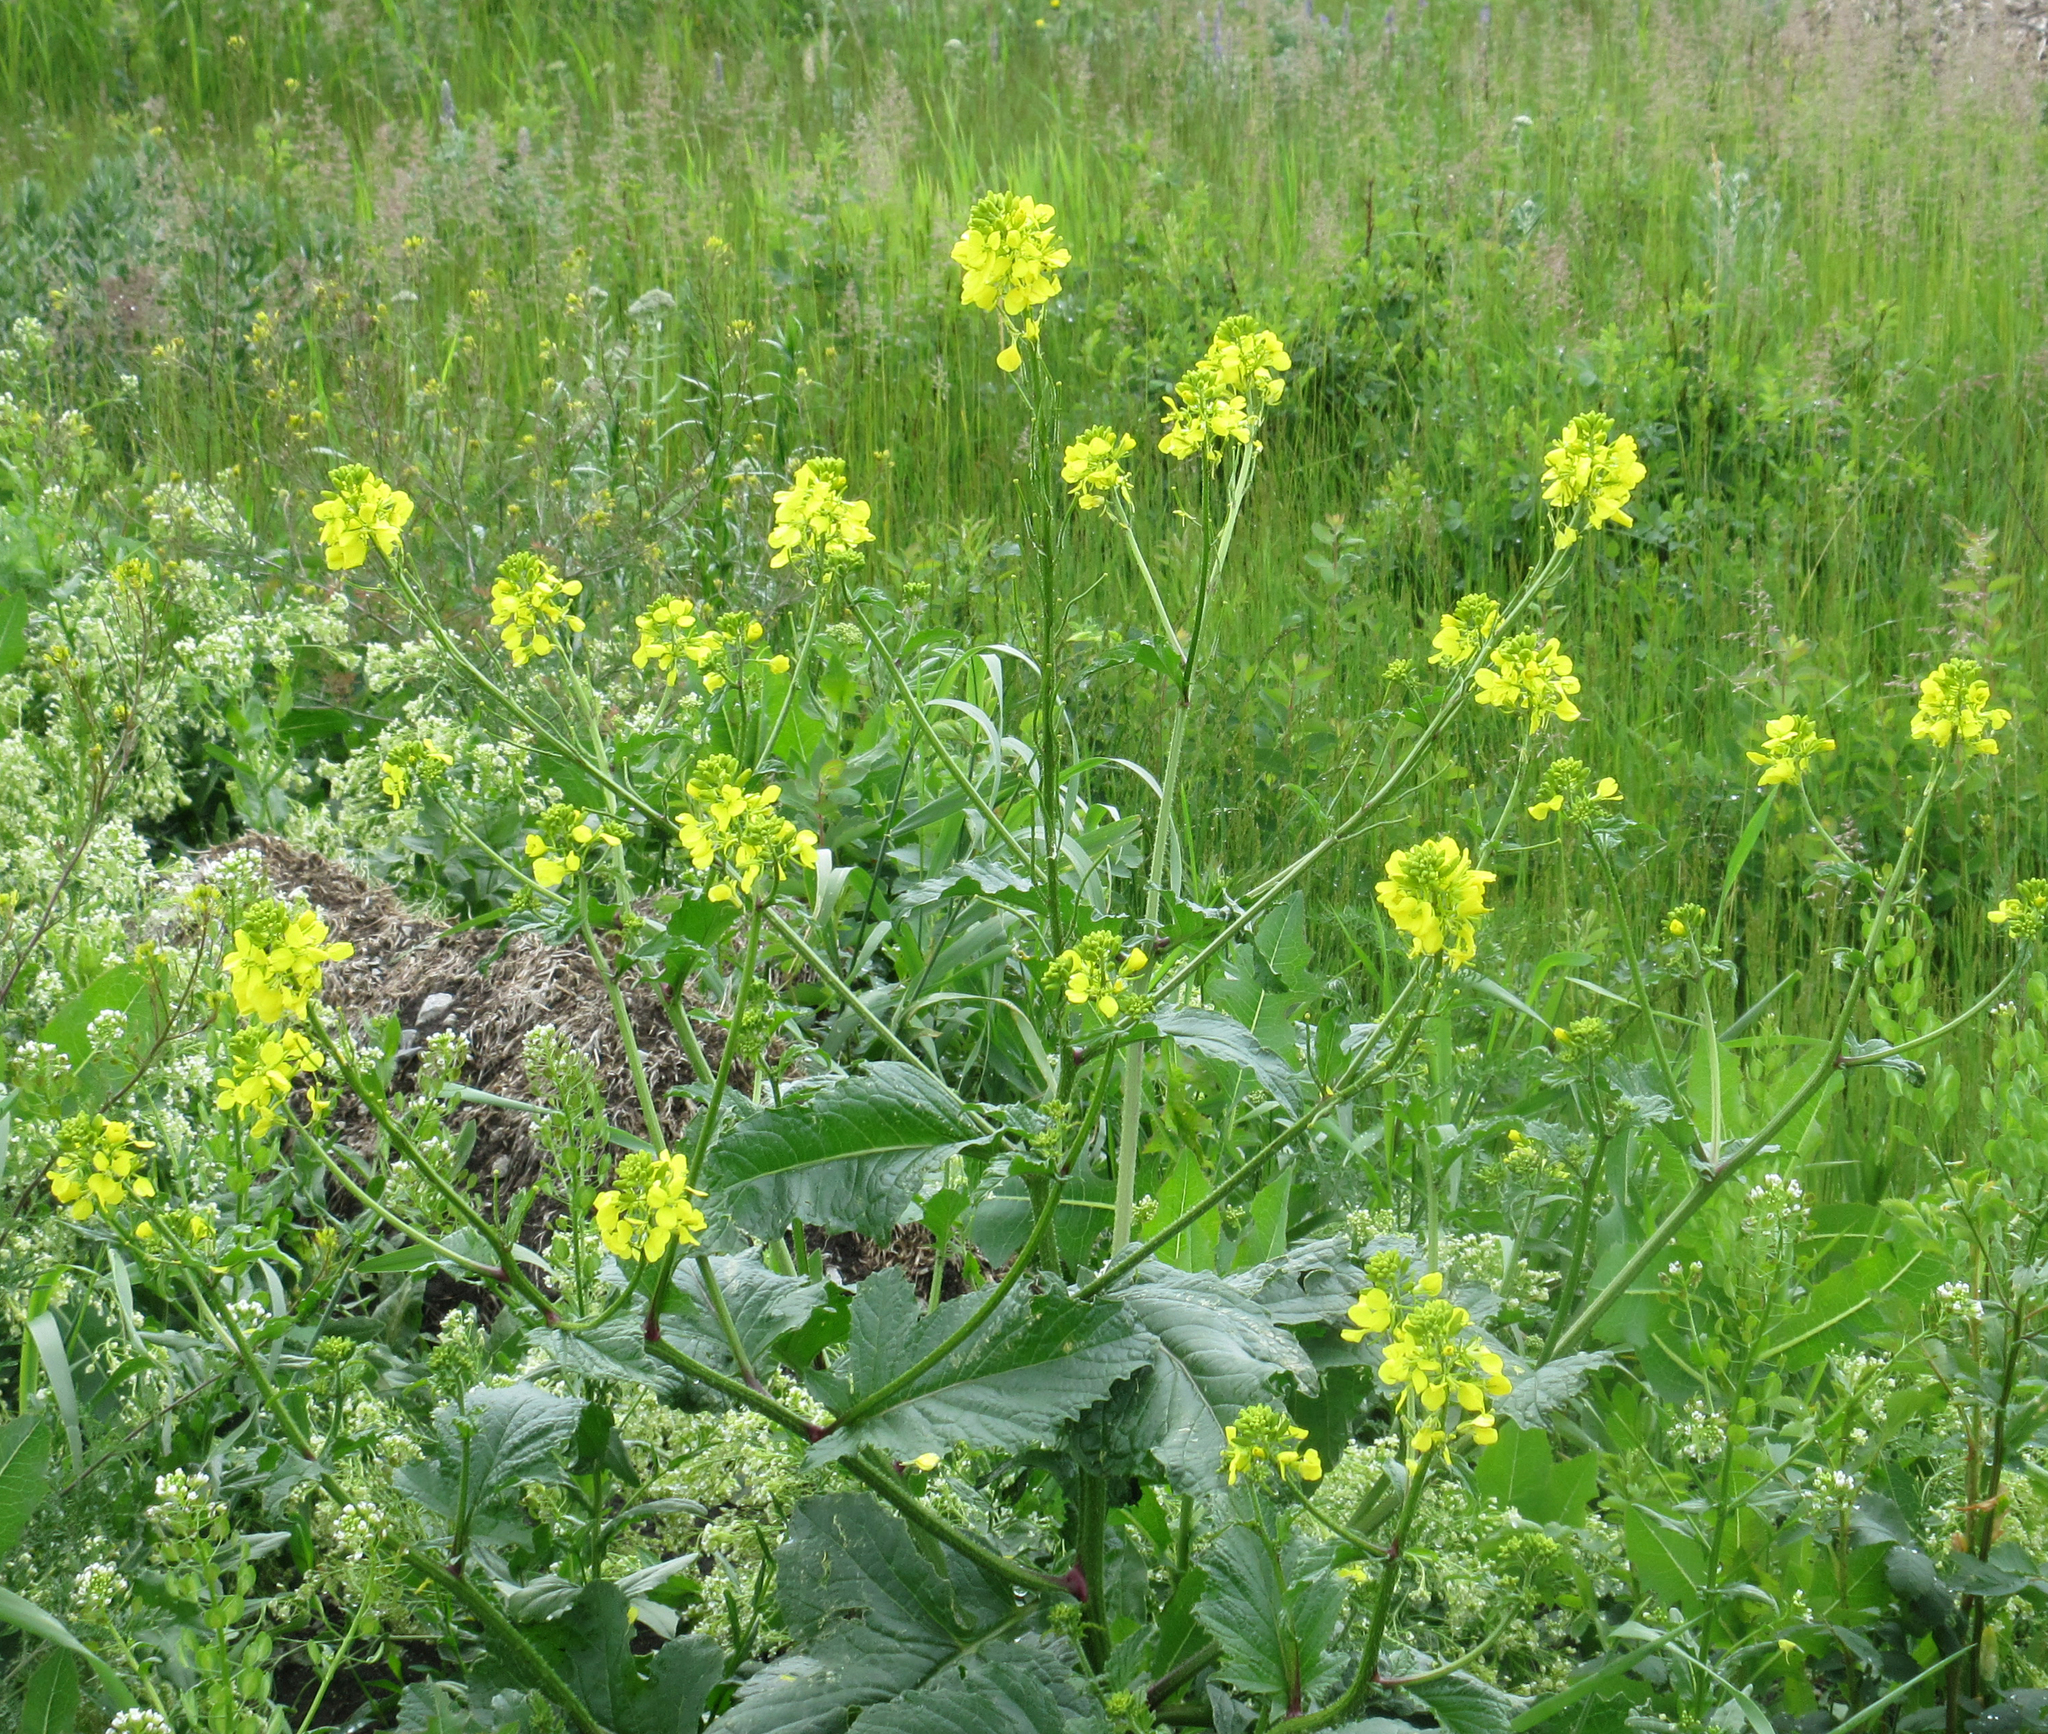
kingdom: Plantae
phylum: Tracheophyta
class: Magnoliopsida
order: Brassicales
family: Brassicaceae
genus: Sinapis
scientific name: Sinapis arvensis
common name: Charlock
